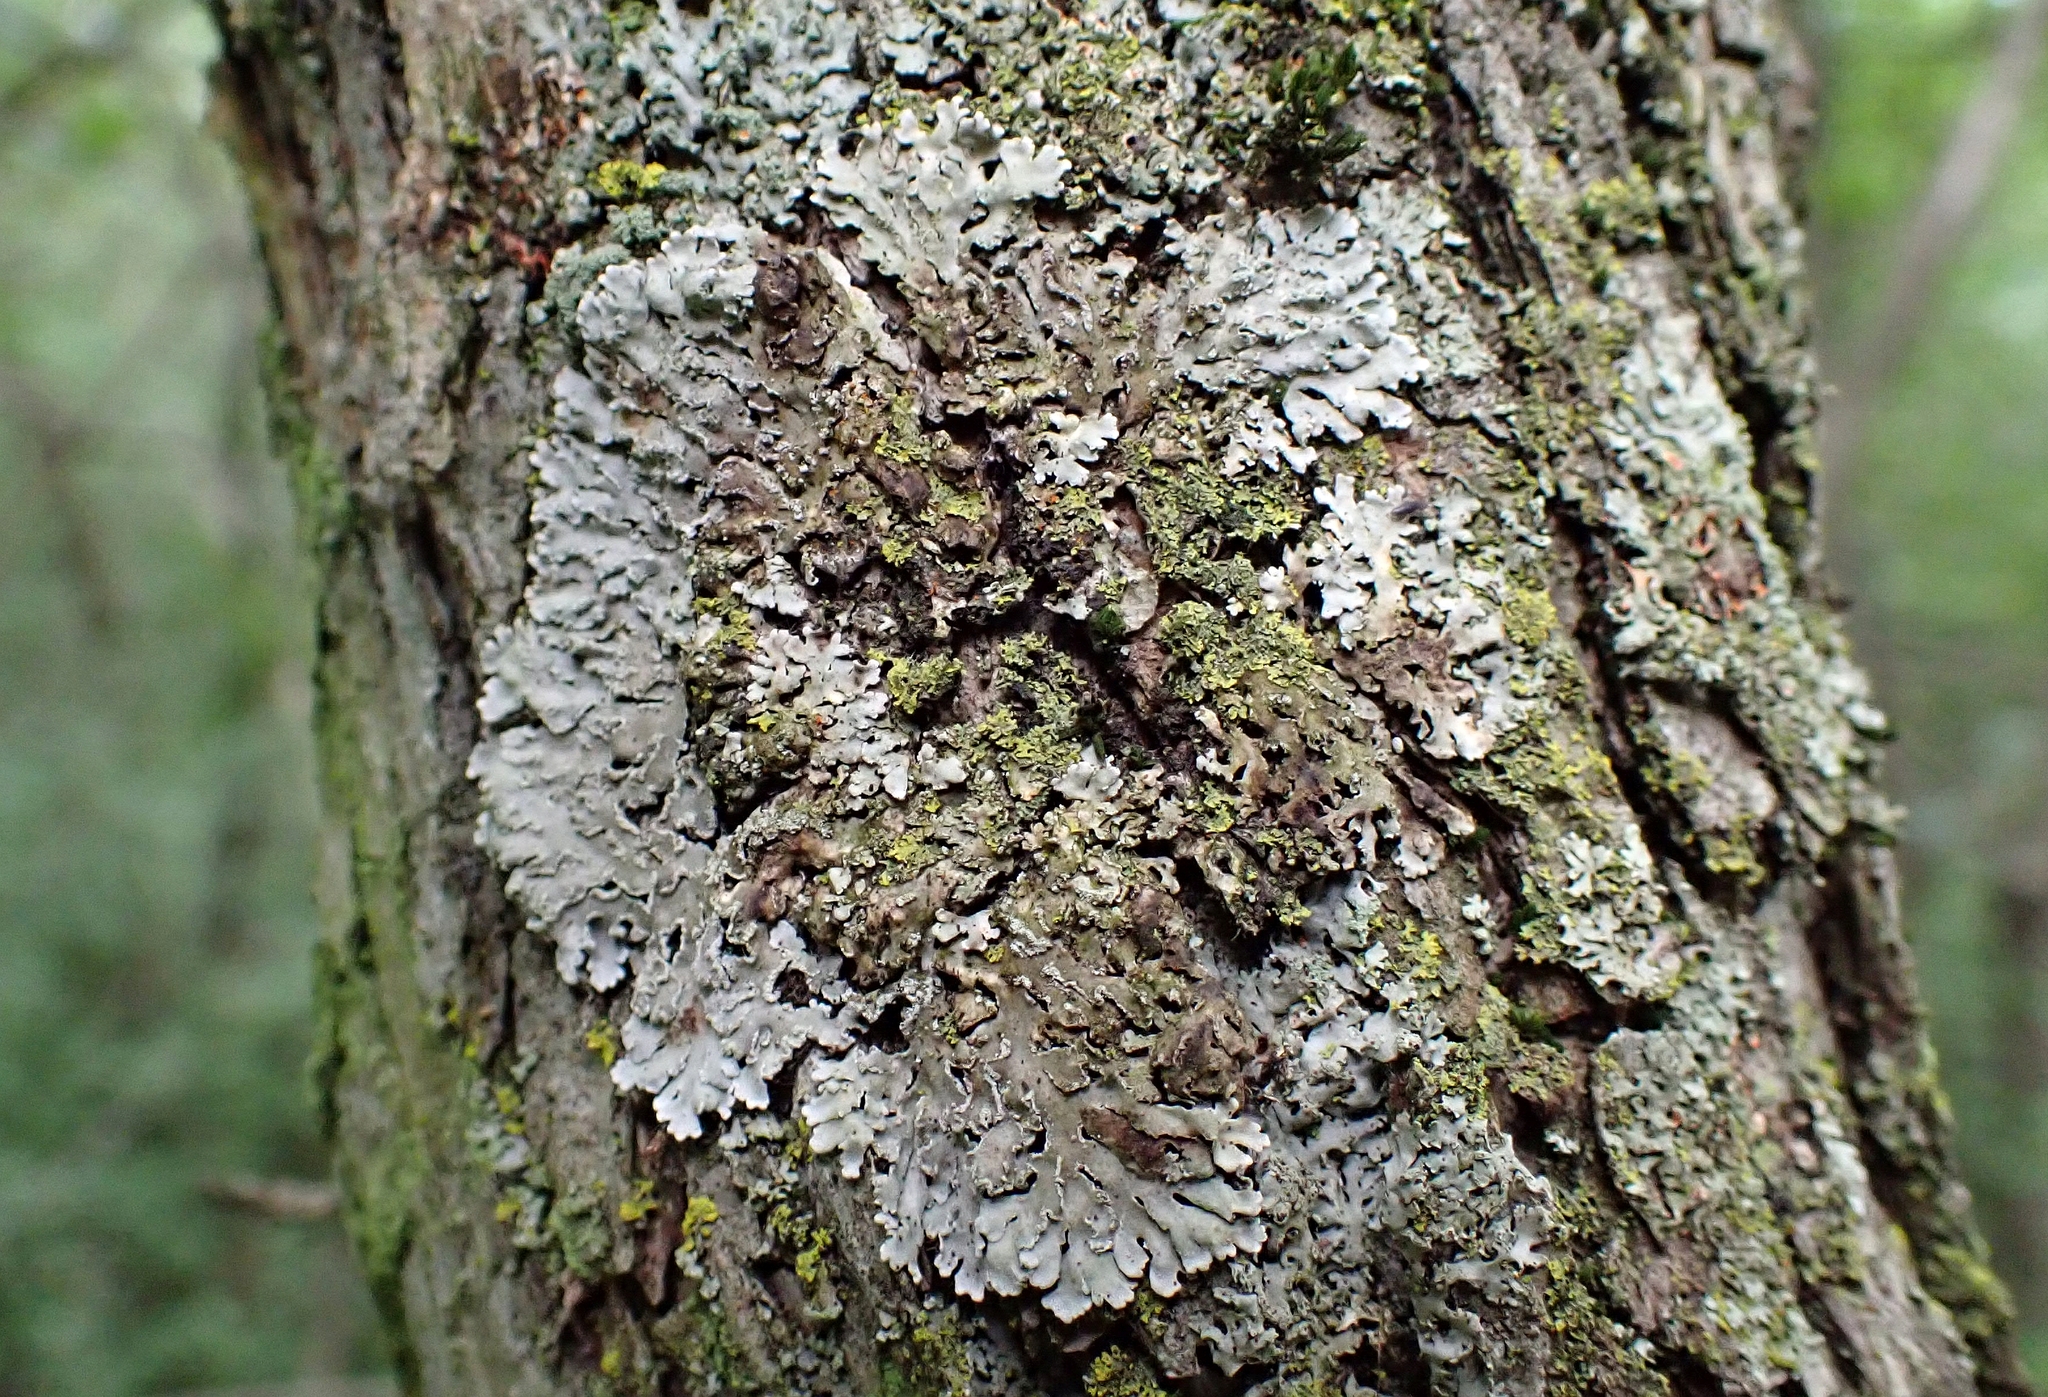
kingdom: Fungi
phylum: Ascomycota
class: Lecanoromycetes
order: Caliciales
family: Physciaceae
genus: Physconia
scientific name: Physconia detersa
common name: Bottlebrush frost lichen
